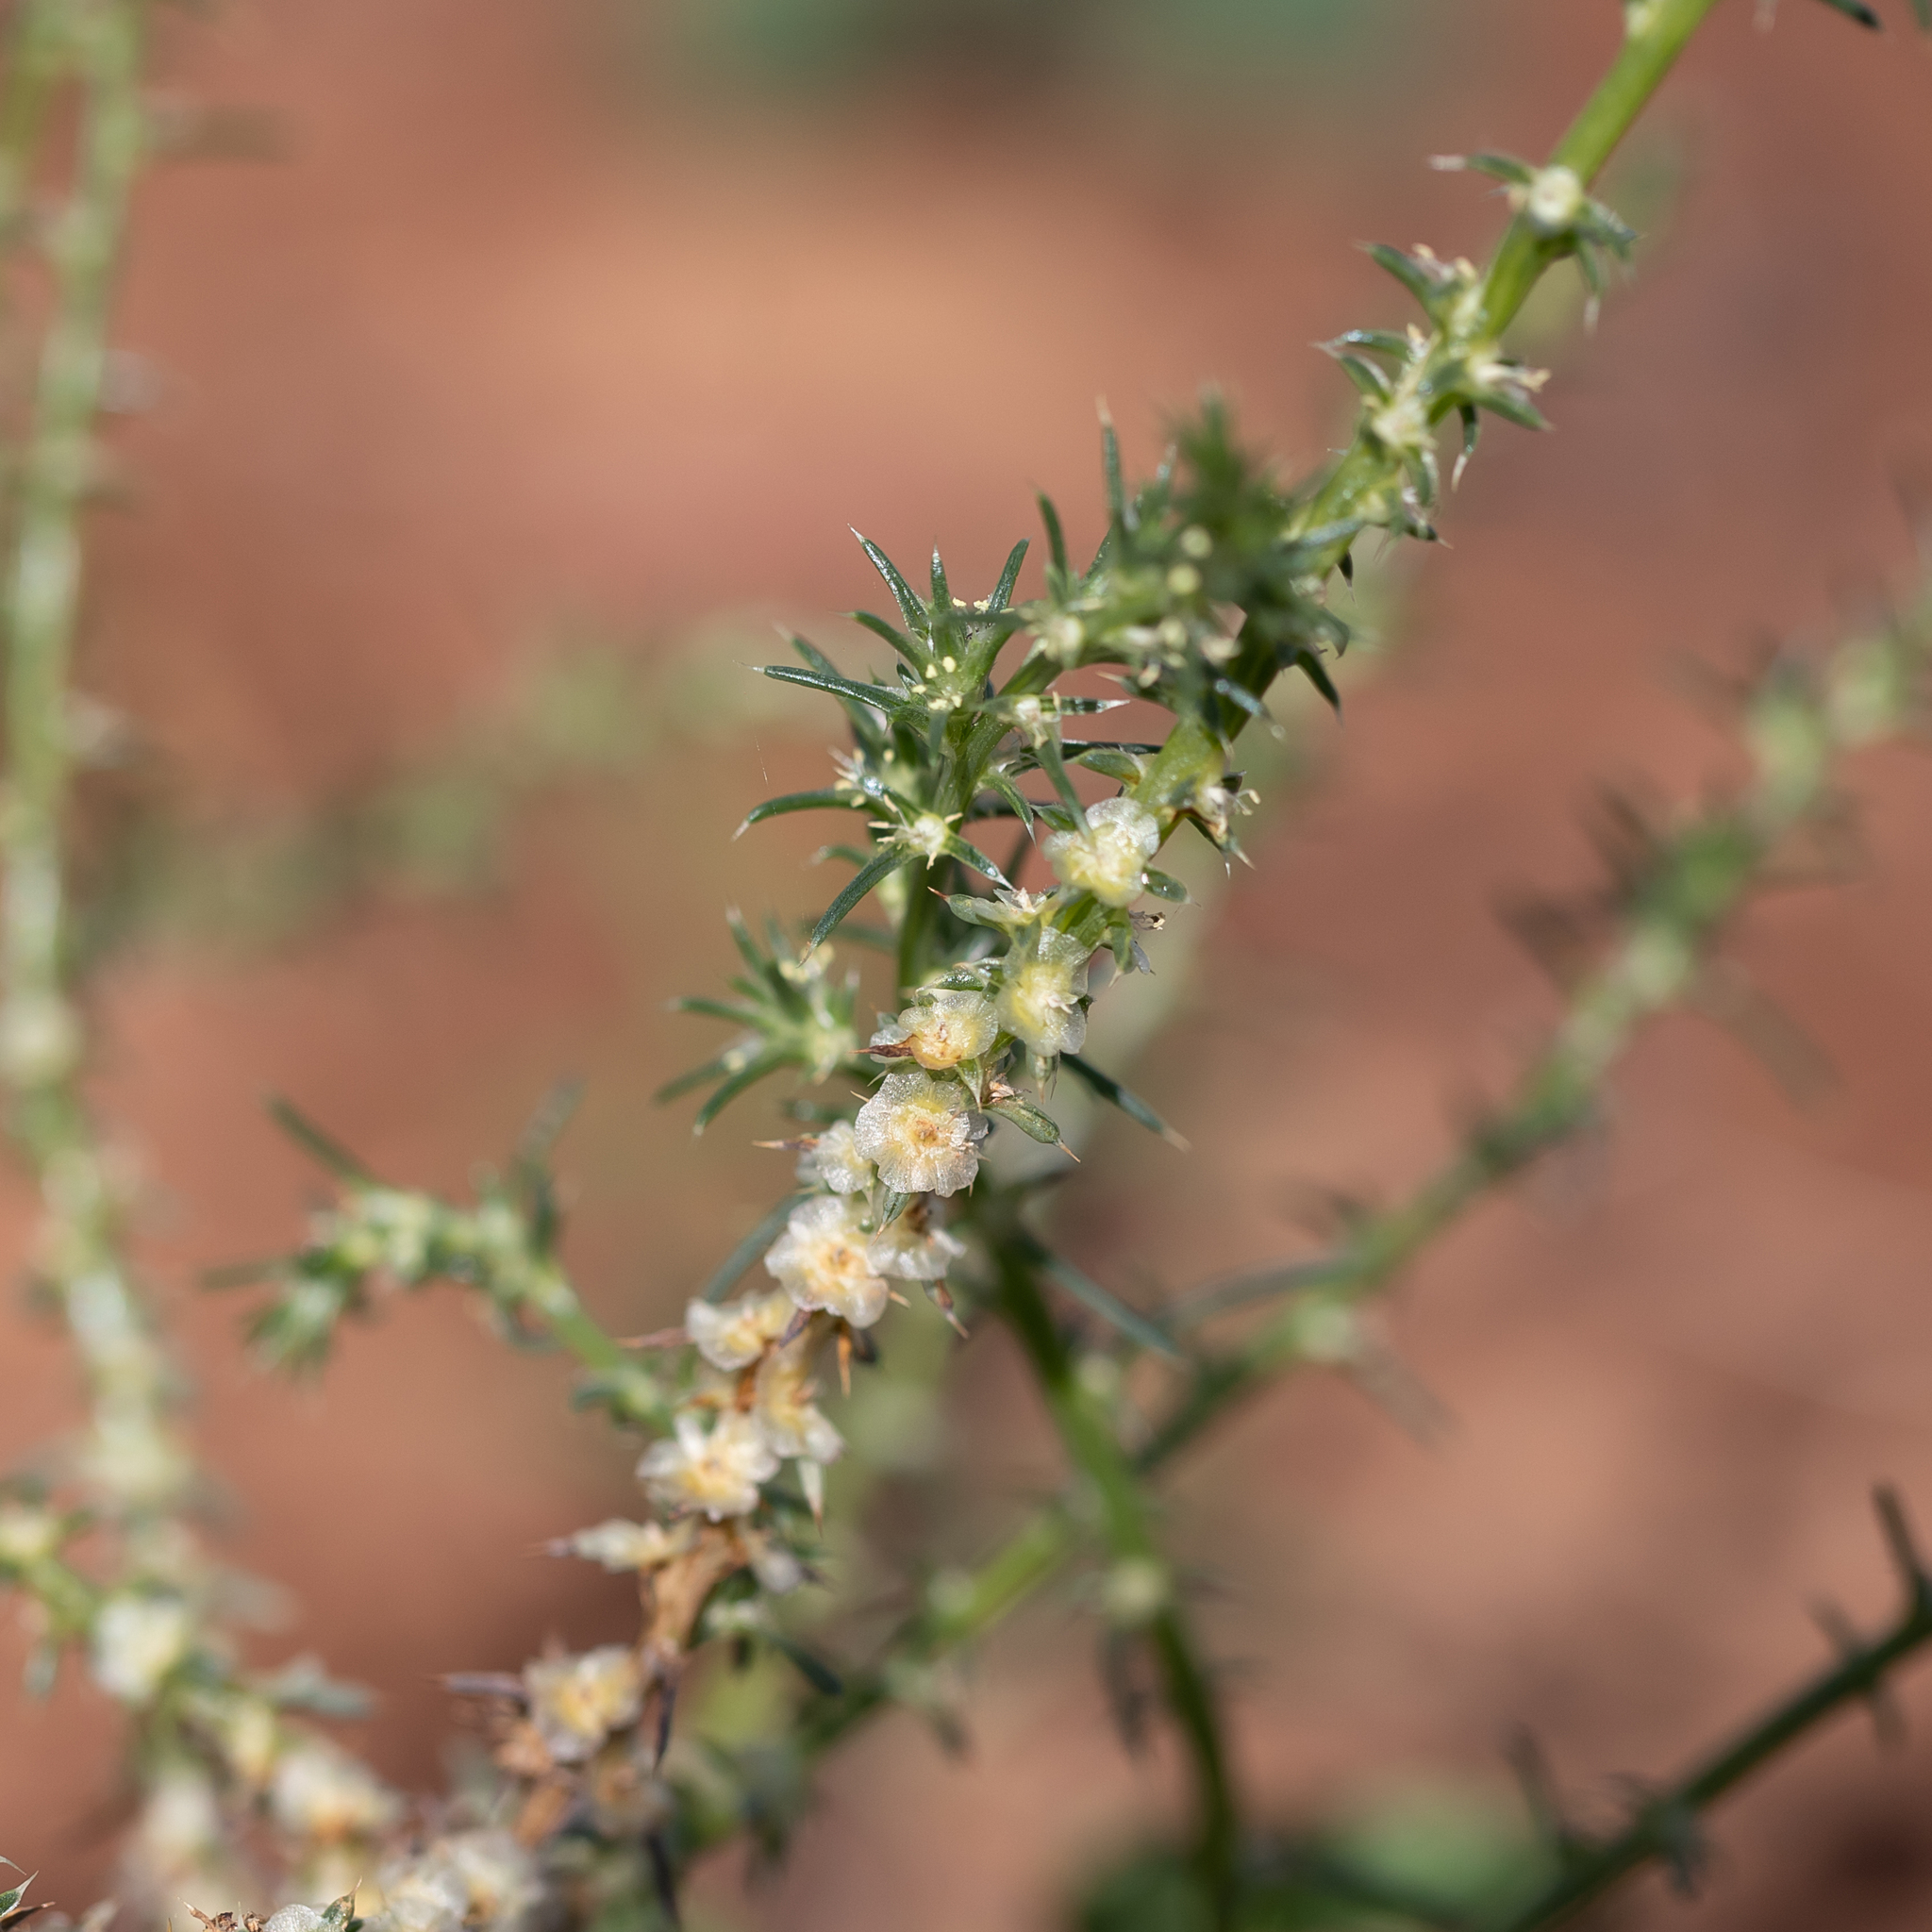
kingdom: Plantae
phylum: Tracheophyta
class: Magnoliopsida
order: Caryophyllales
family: Amaranthaceae
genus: Salsola
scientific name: Salsola australis
